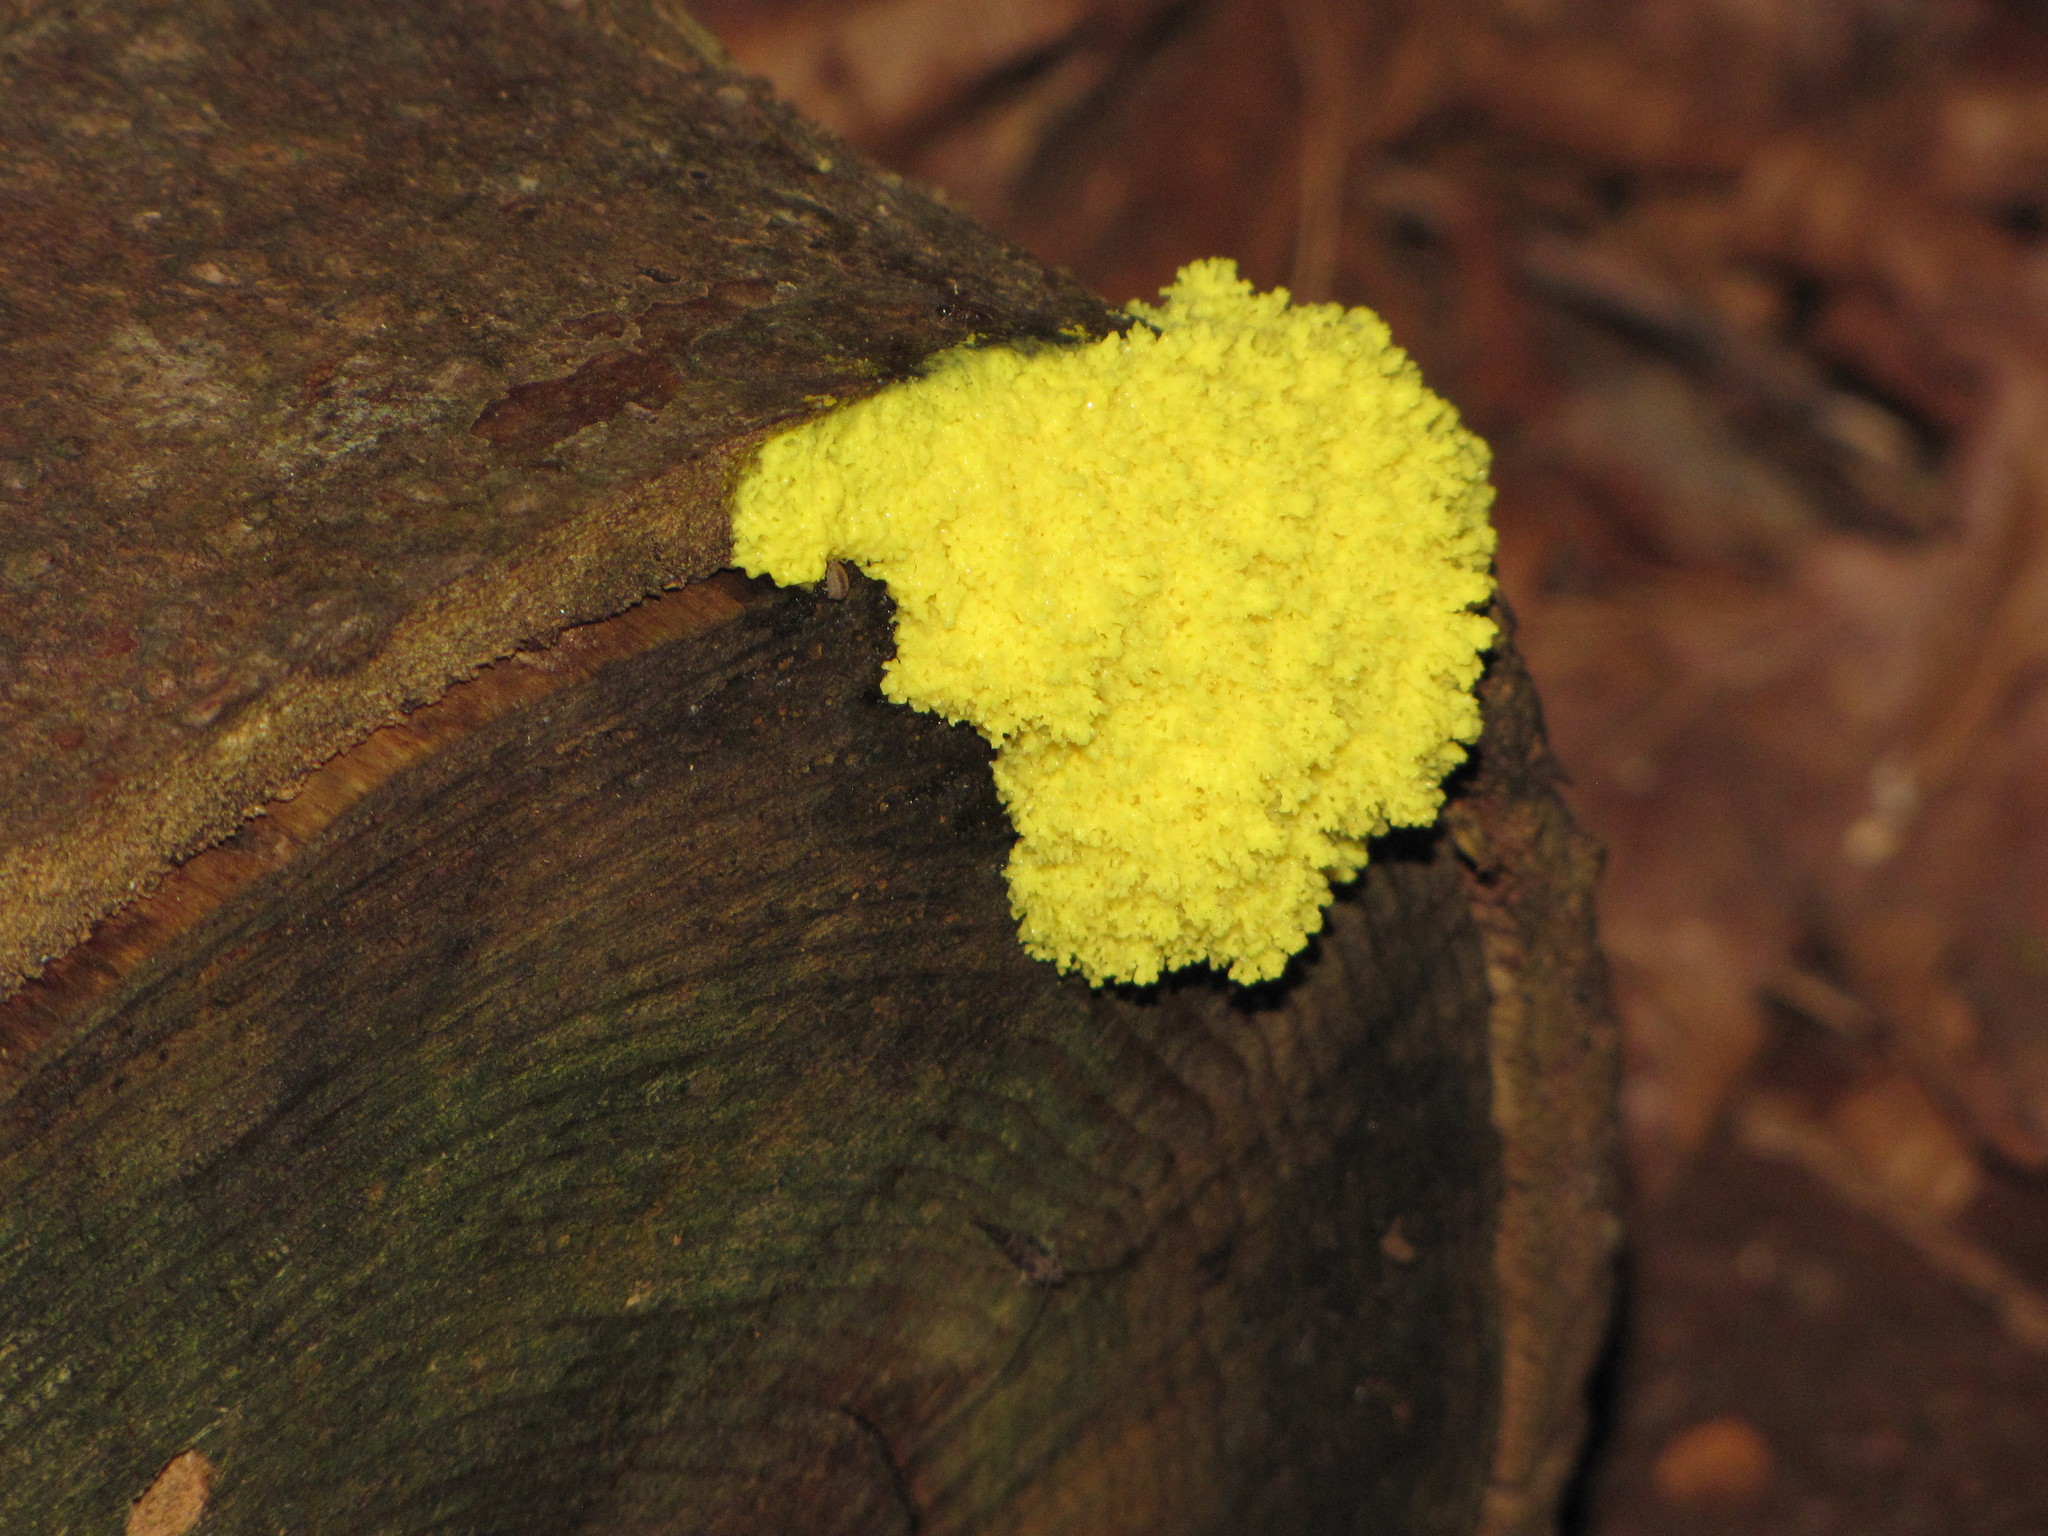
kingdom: Protozoa
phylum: Mycetozoa
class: Myxomycetes
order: Physarales
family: Physaraceae
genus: Fuligo
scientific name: Fuligo septica
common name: Dog vomit slime mold
